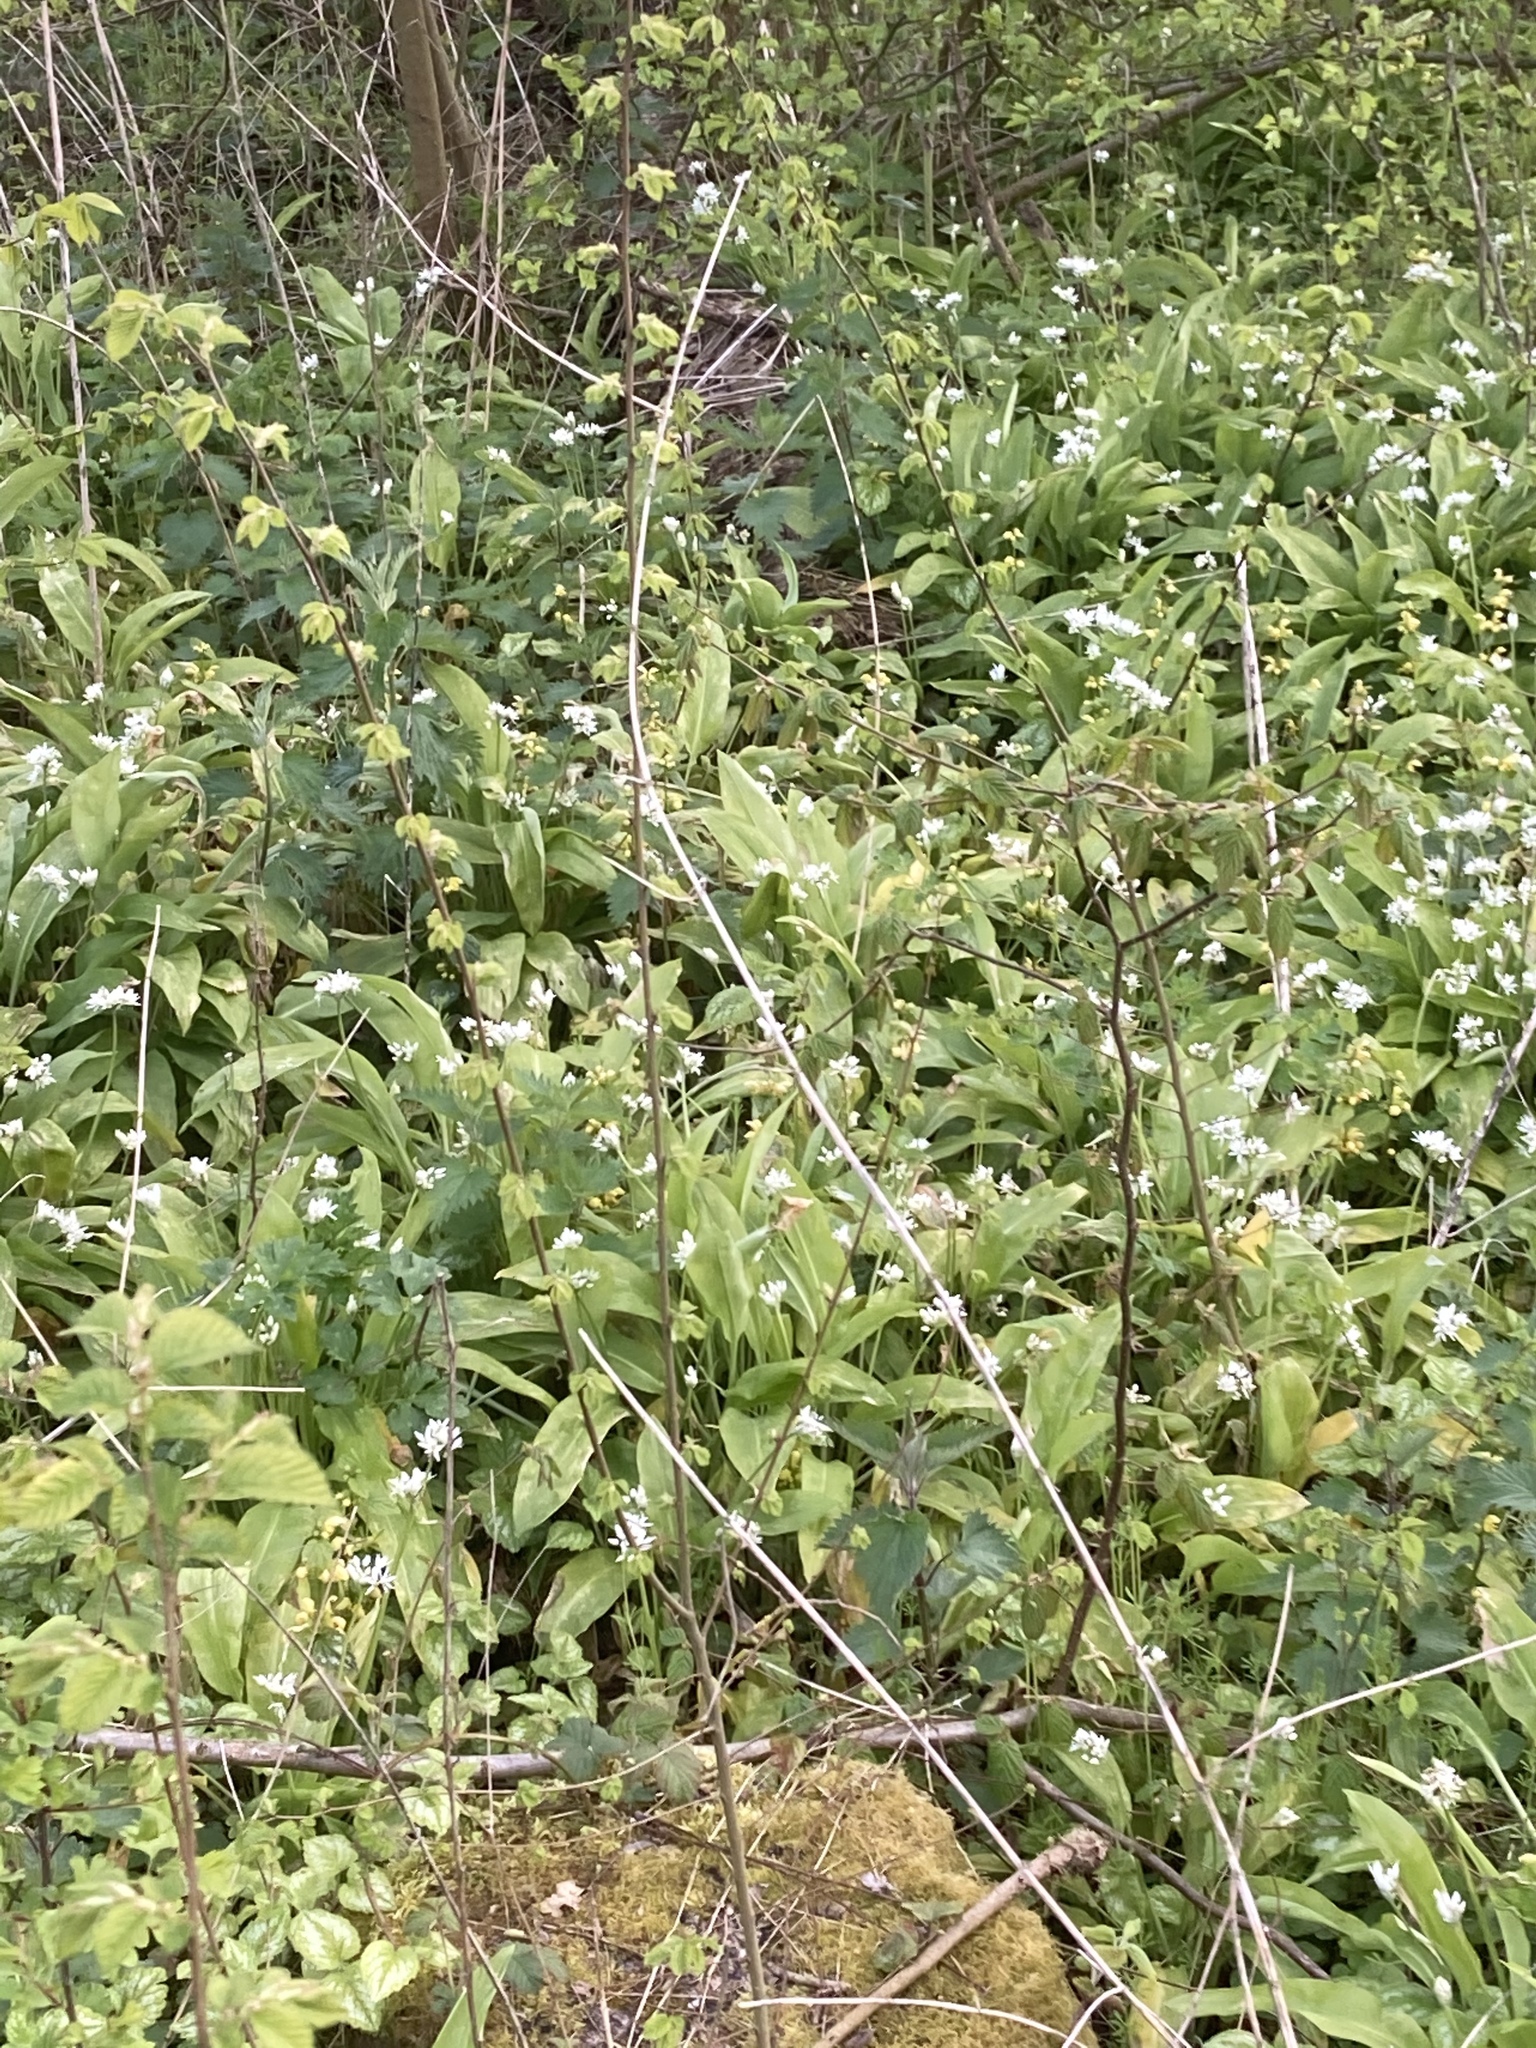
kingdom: Plantae
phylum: Tracheophyta
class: Liliopsida
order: Asparagales
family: Amaryllidaceae
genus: Allium
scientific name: Allium ursinum
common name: Ramsons
